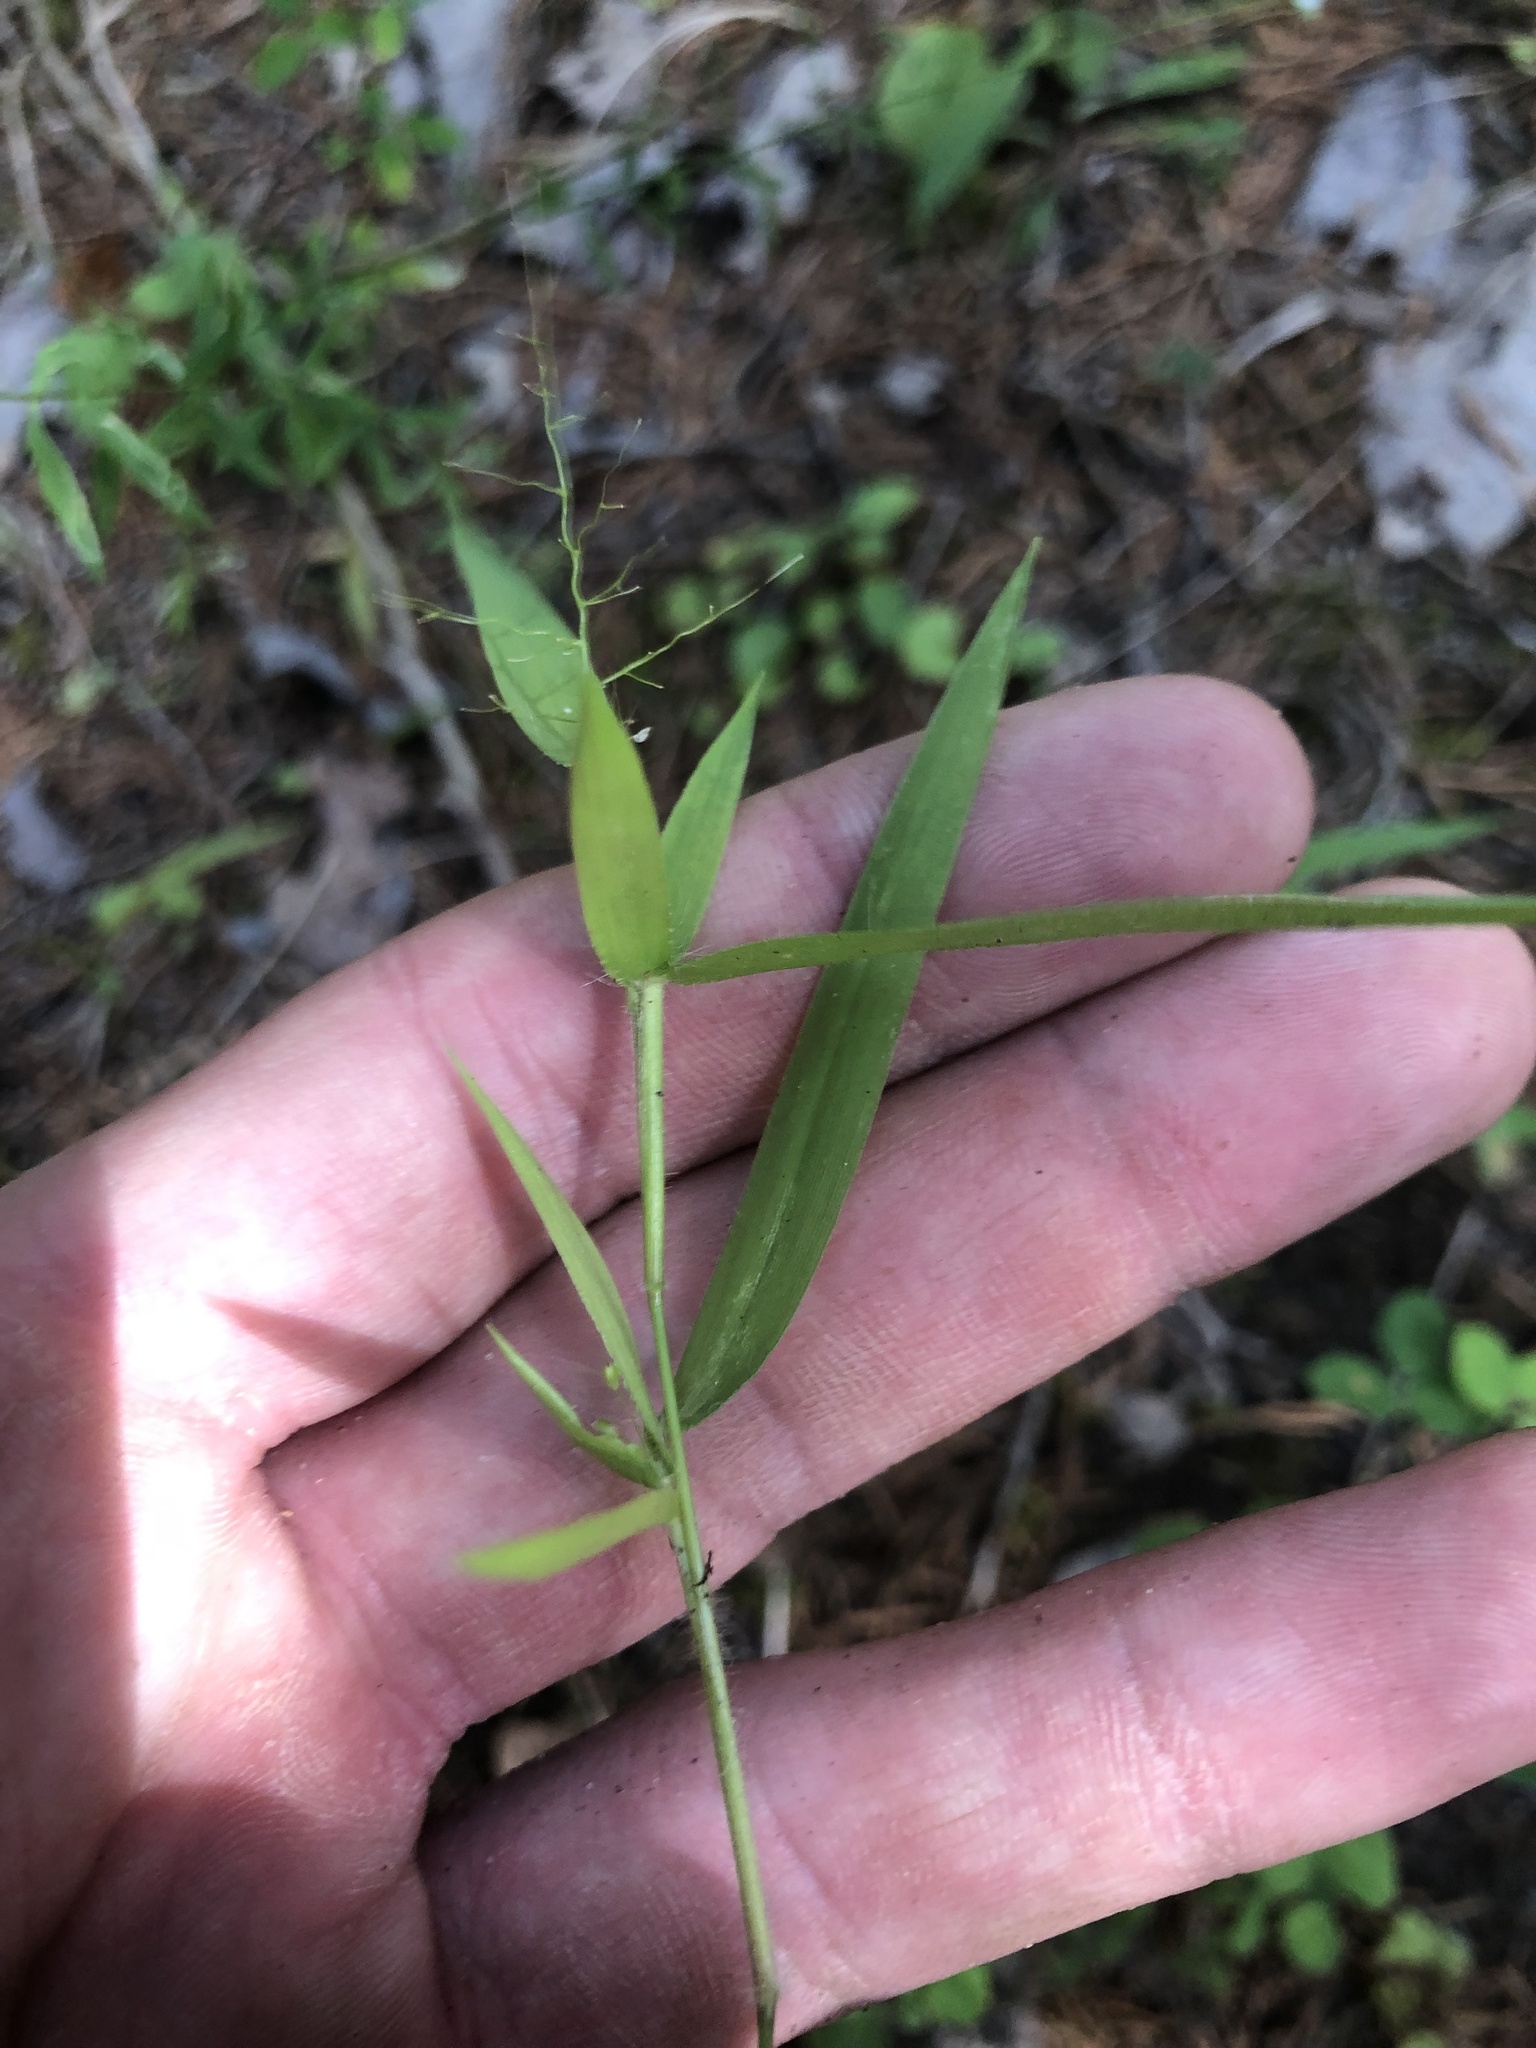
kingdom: Plantae
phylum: Tracheophyta
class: Liliopsida
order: Poales
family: Poaceae
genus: Dichanthelium
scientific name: Dichanthelium lanuginosum
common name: Woolly panicgrass
